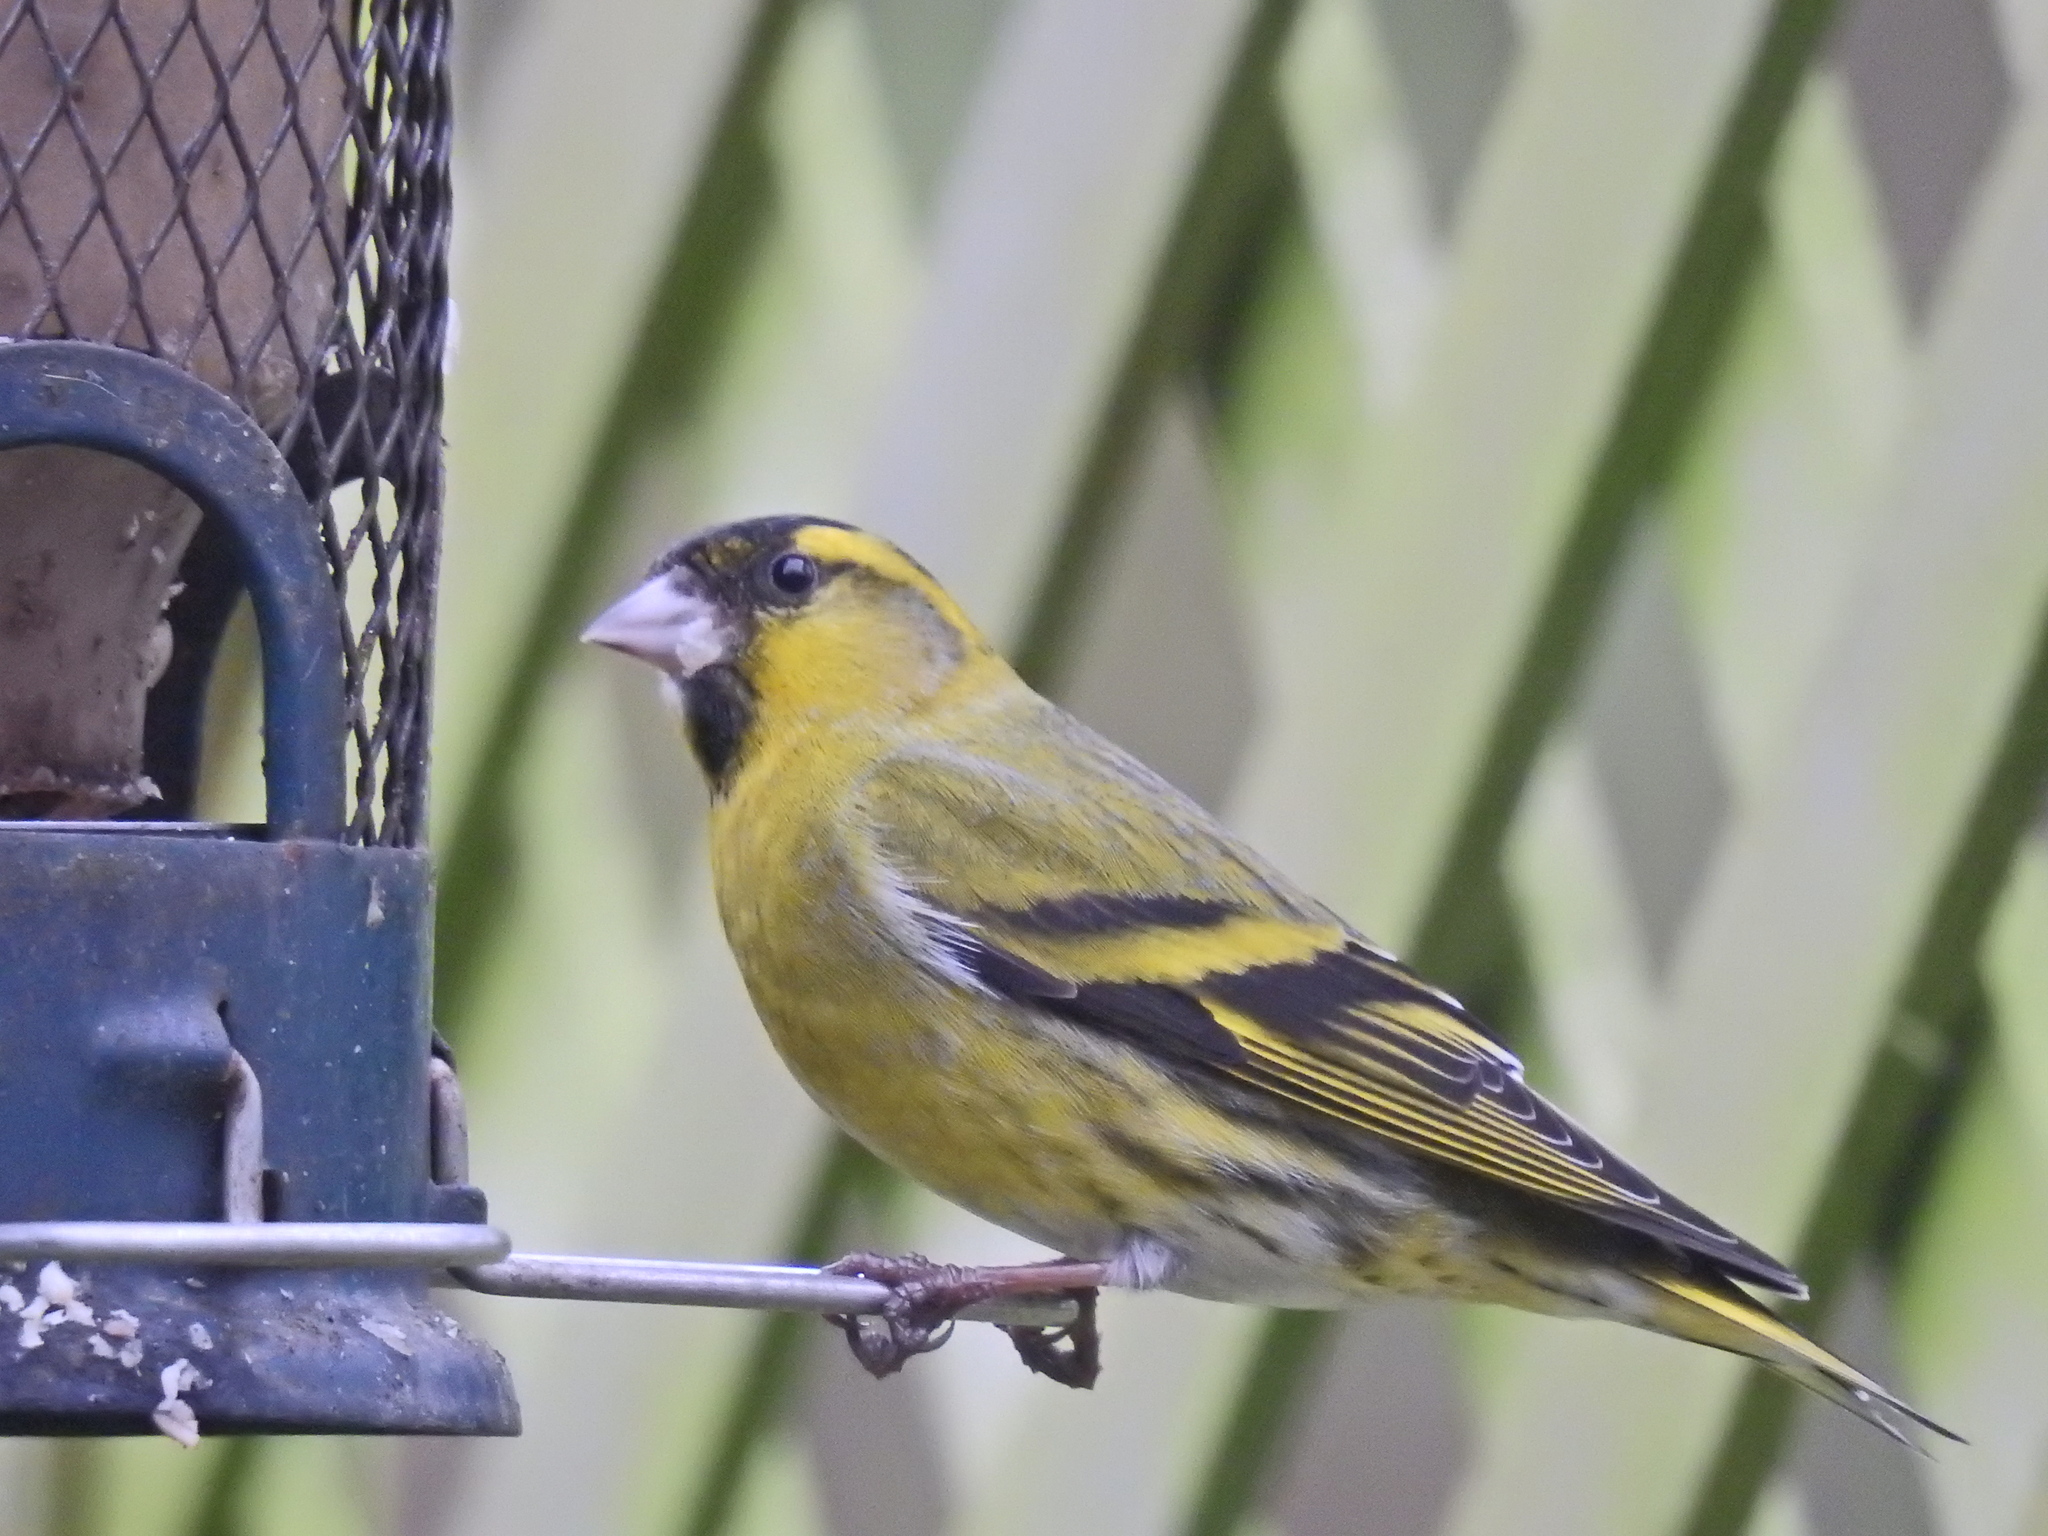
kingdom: Animalia
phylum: Chordata
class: Aves
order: Passeriformes
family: Fringillidae
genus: Spinus
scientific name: Spinus spinus
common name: Eurasian siskin
